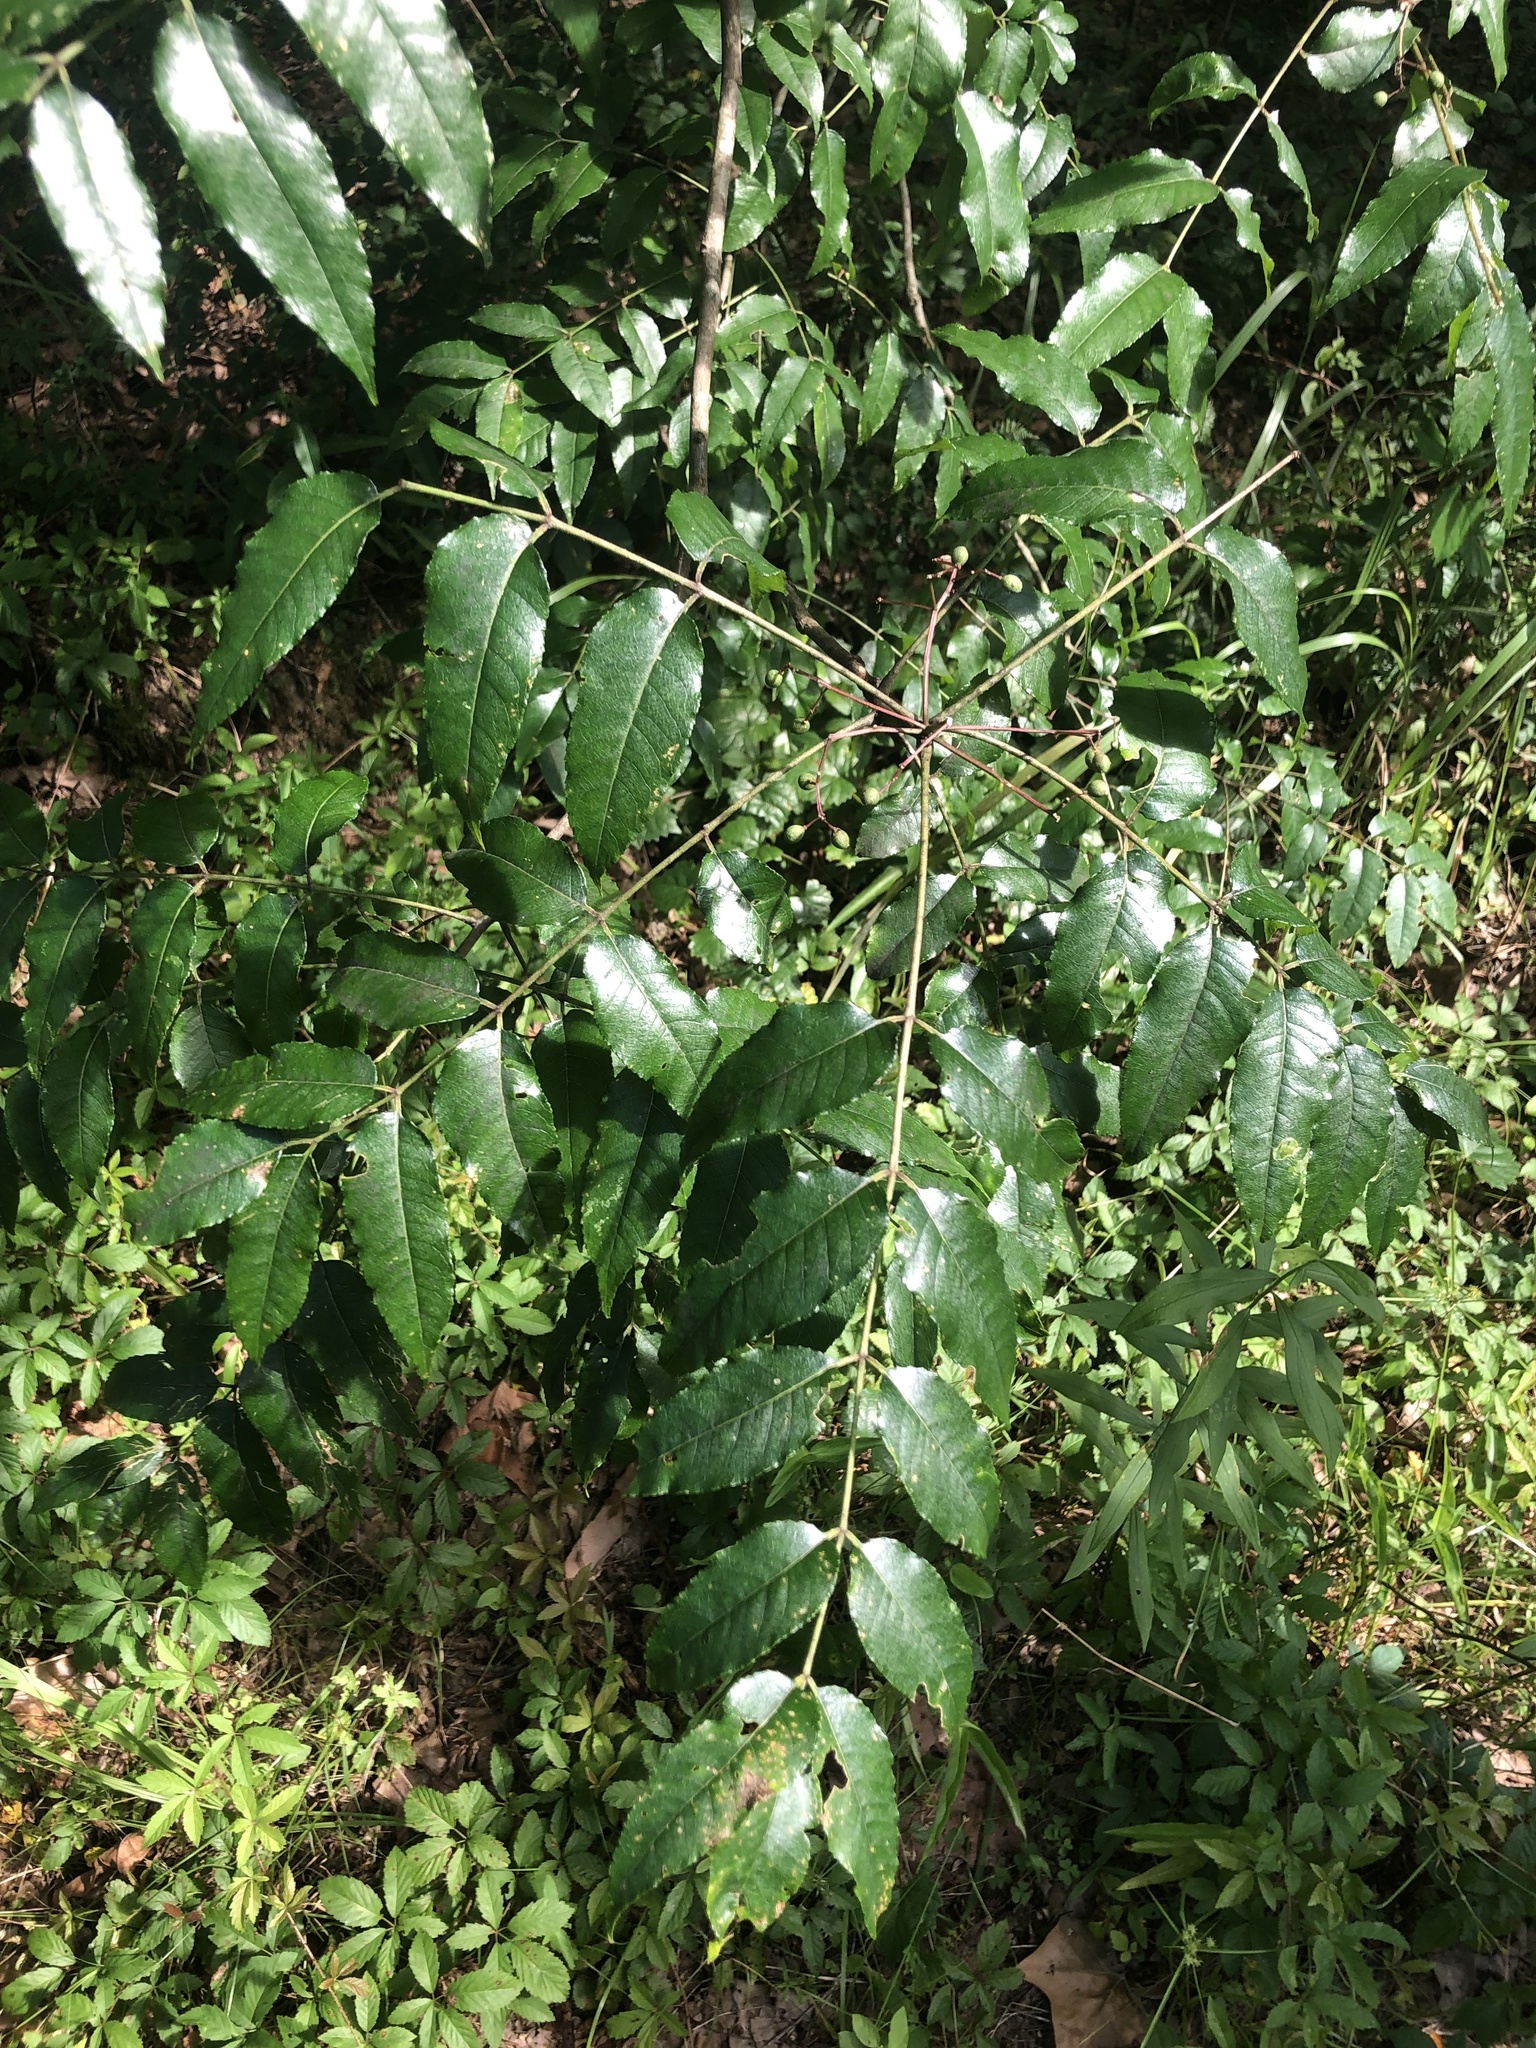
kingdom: Plantae
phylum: Tracheophyta
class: Magnoliopsida
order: Sapindales
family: Rutaceae
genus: Zanthoxylum
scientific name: Zanthoxylum clava-herculis
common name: Hercules'-club
